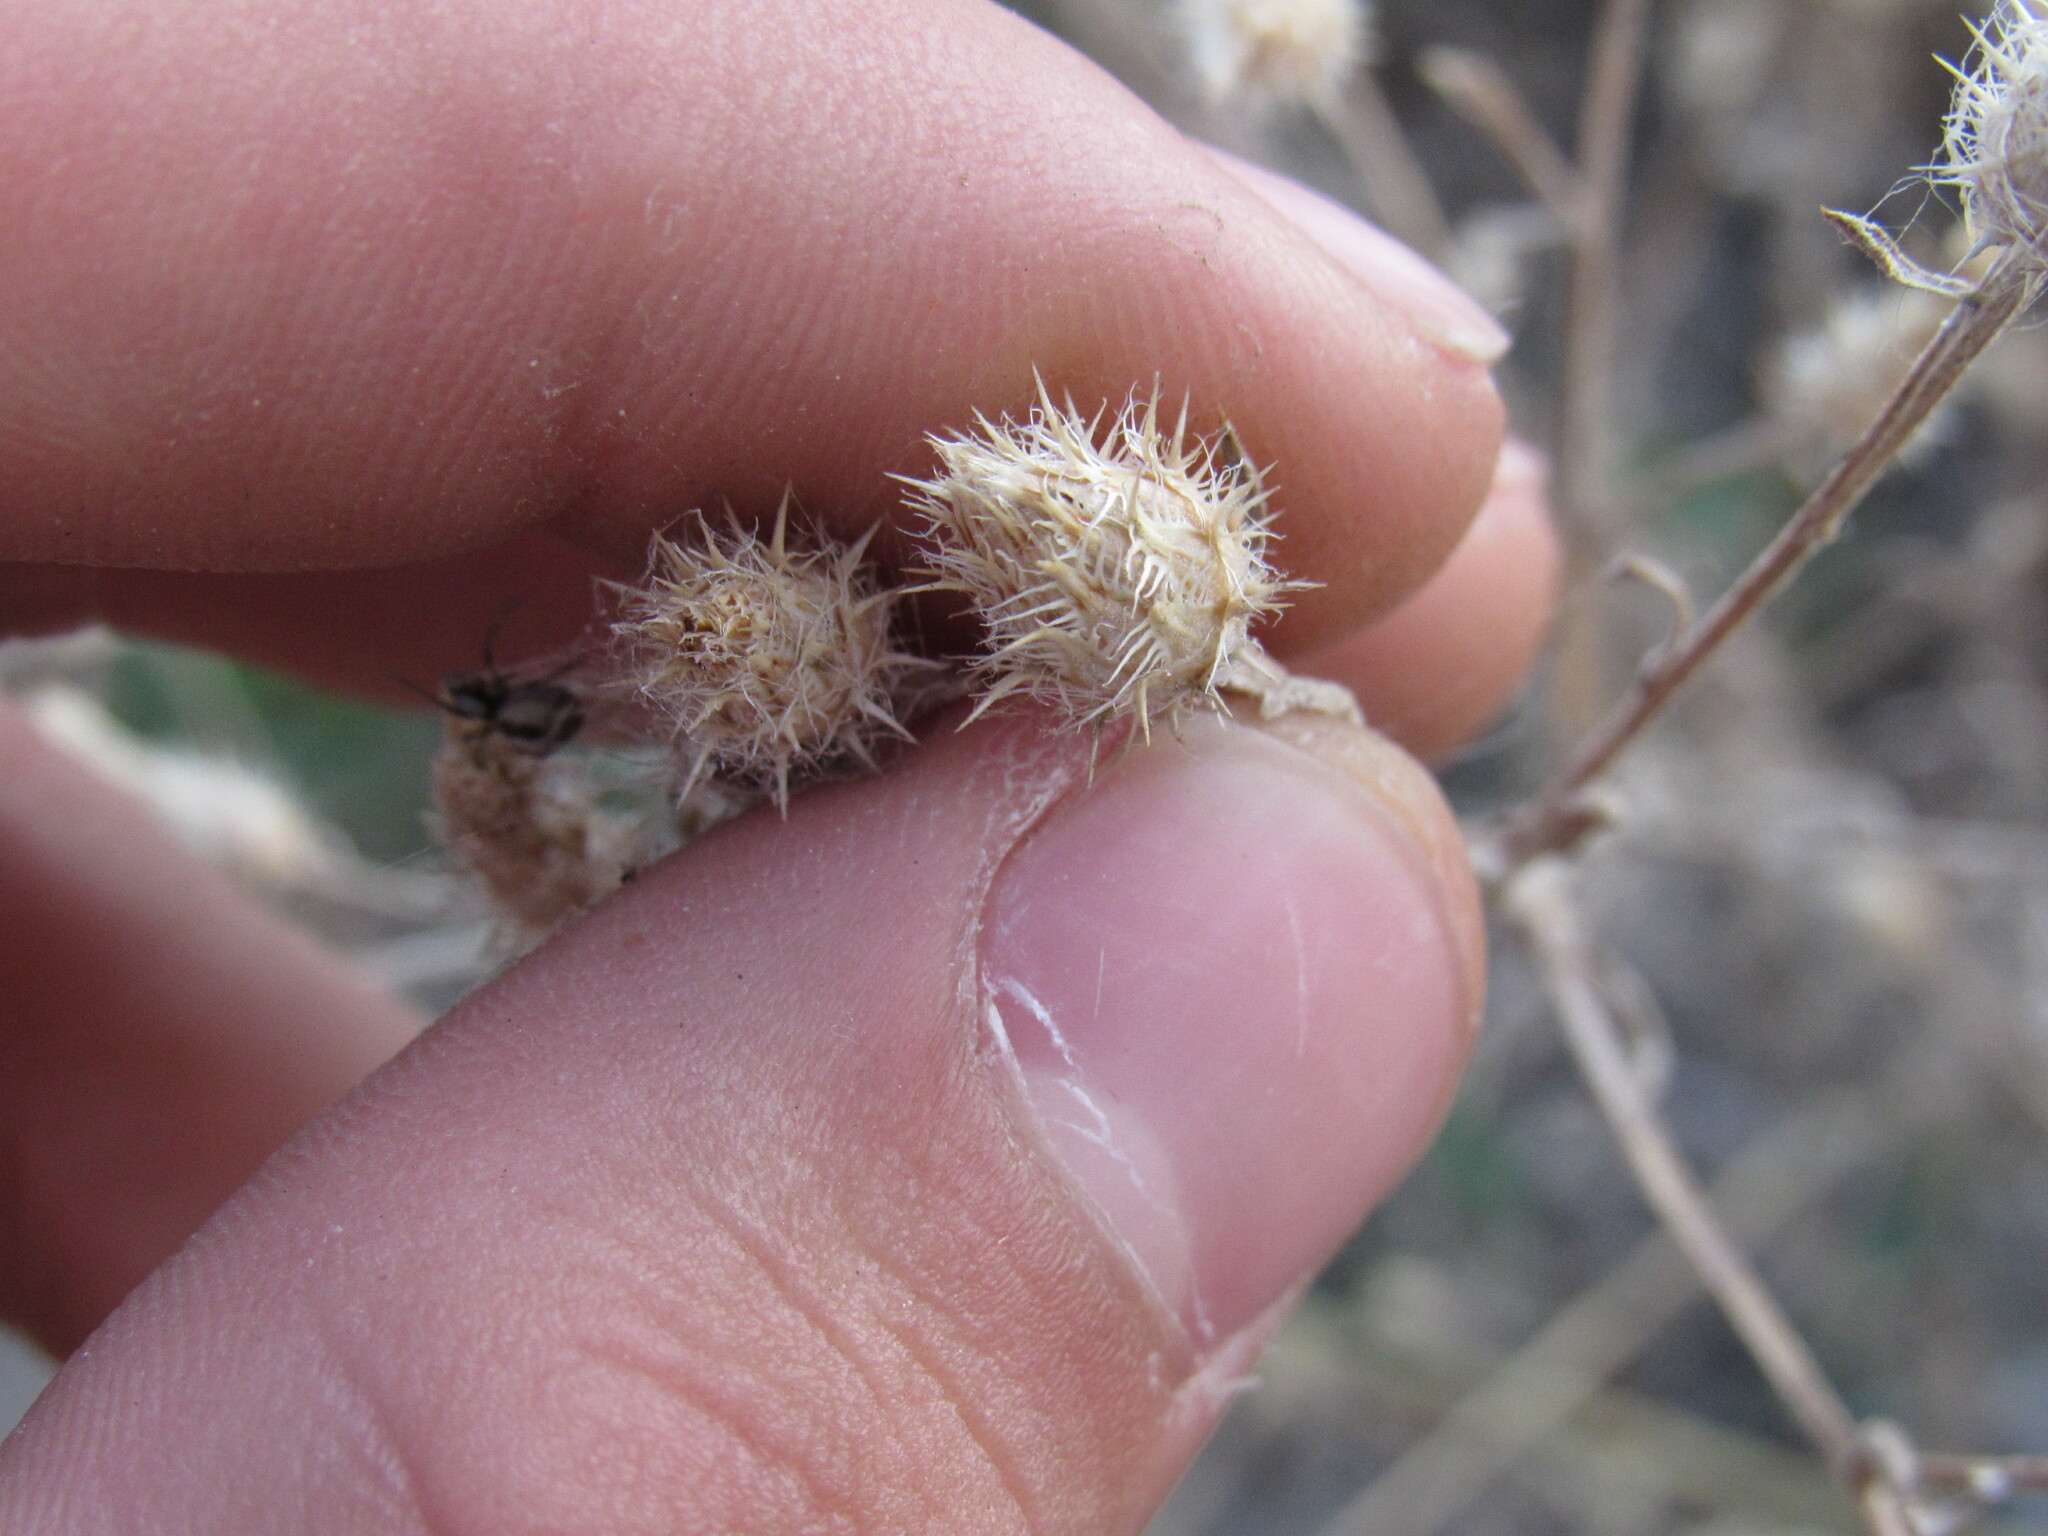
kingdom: Plantae
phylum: Tracheophyta
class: Magnoliopsida
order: Asterales
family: Asteraceae
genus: Centaurea
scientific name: Centaurea diffusa
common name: Diffuse knapweed
